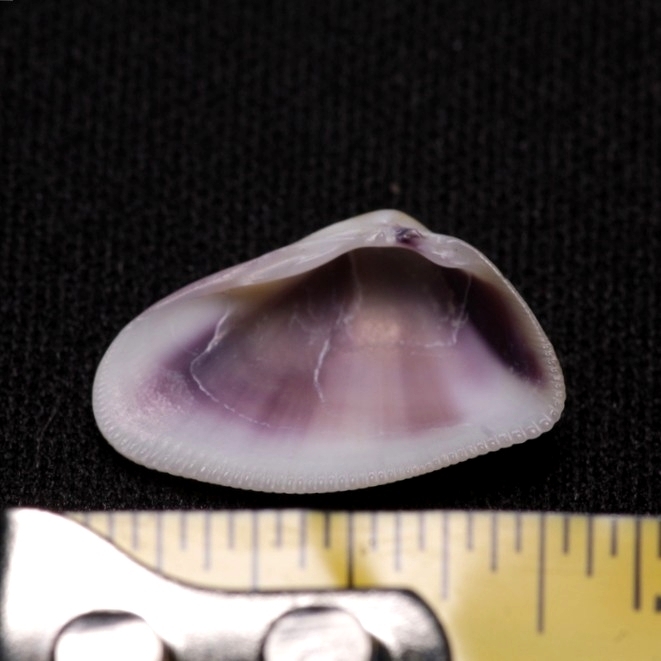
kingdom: Animalia
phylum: Mollusca
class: Bivalvia
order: Cardiida
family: Donacidae
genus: Donax
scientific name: Donax variabilis
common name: Butterfly shell
